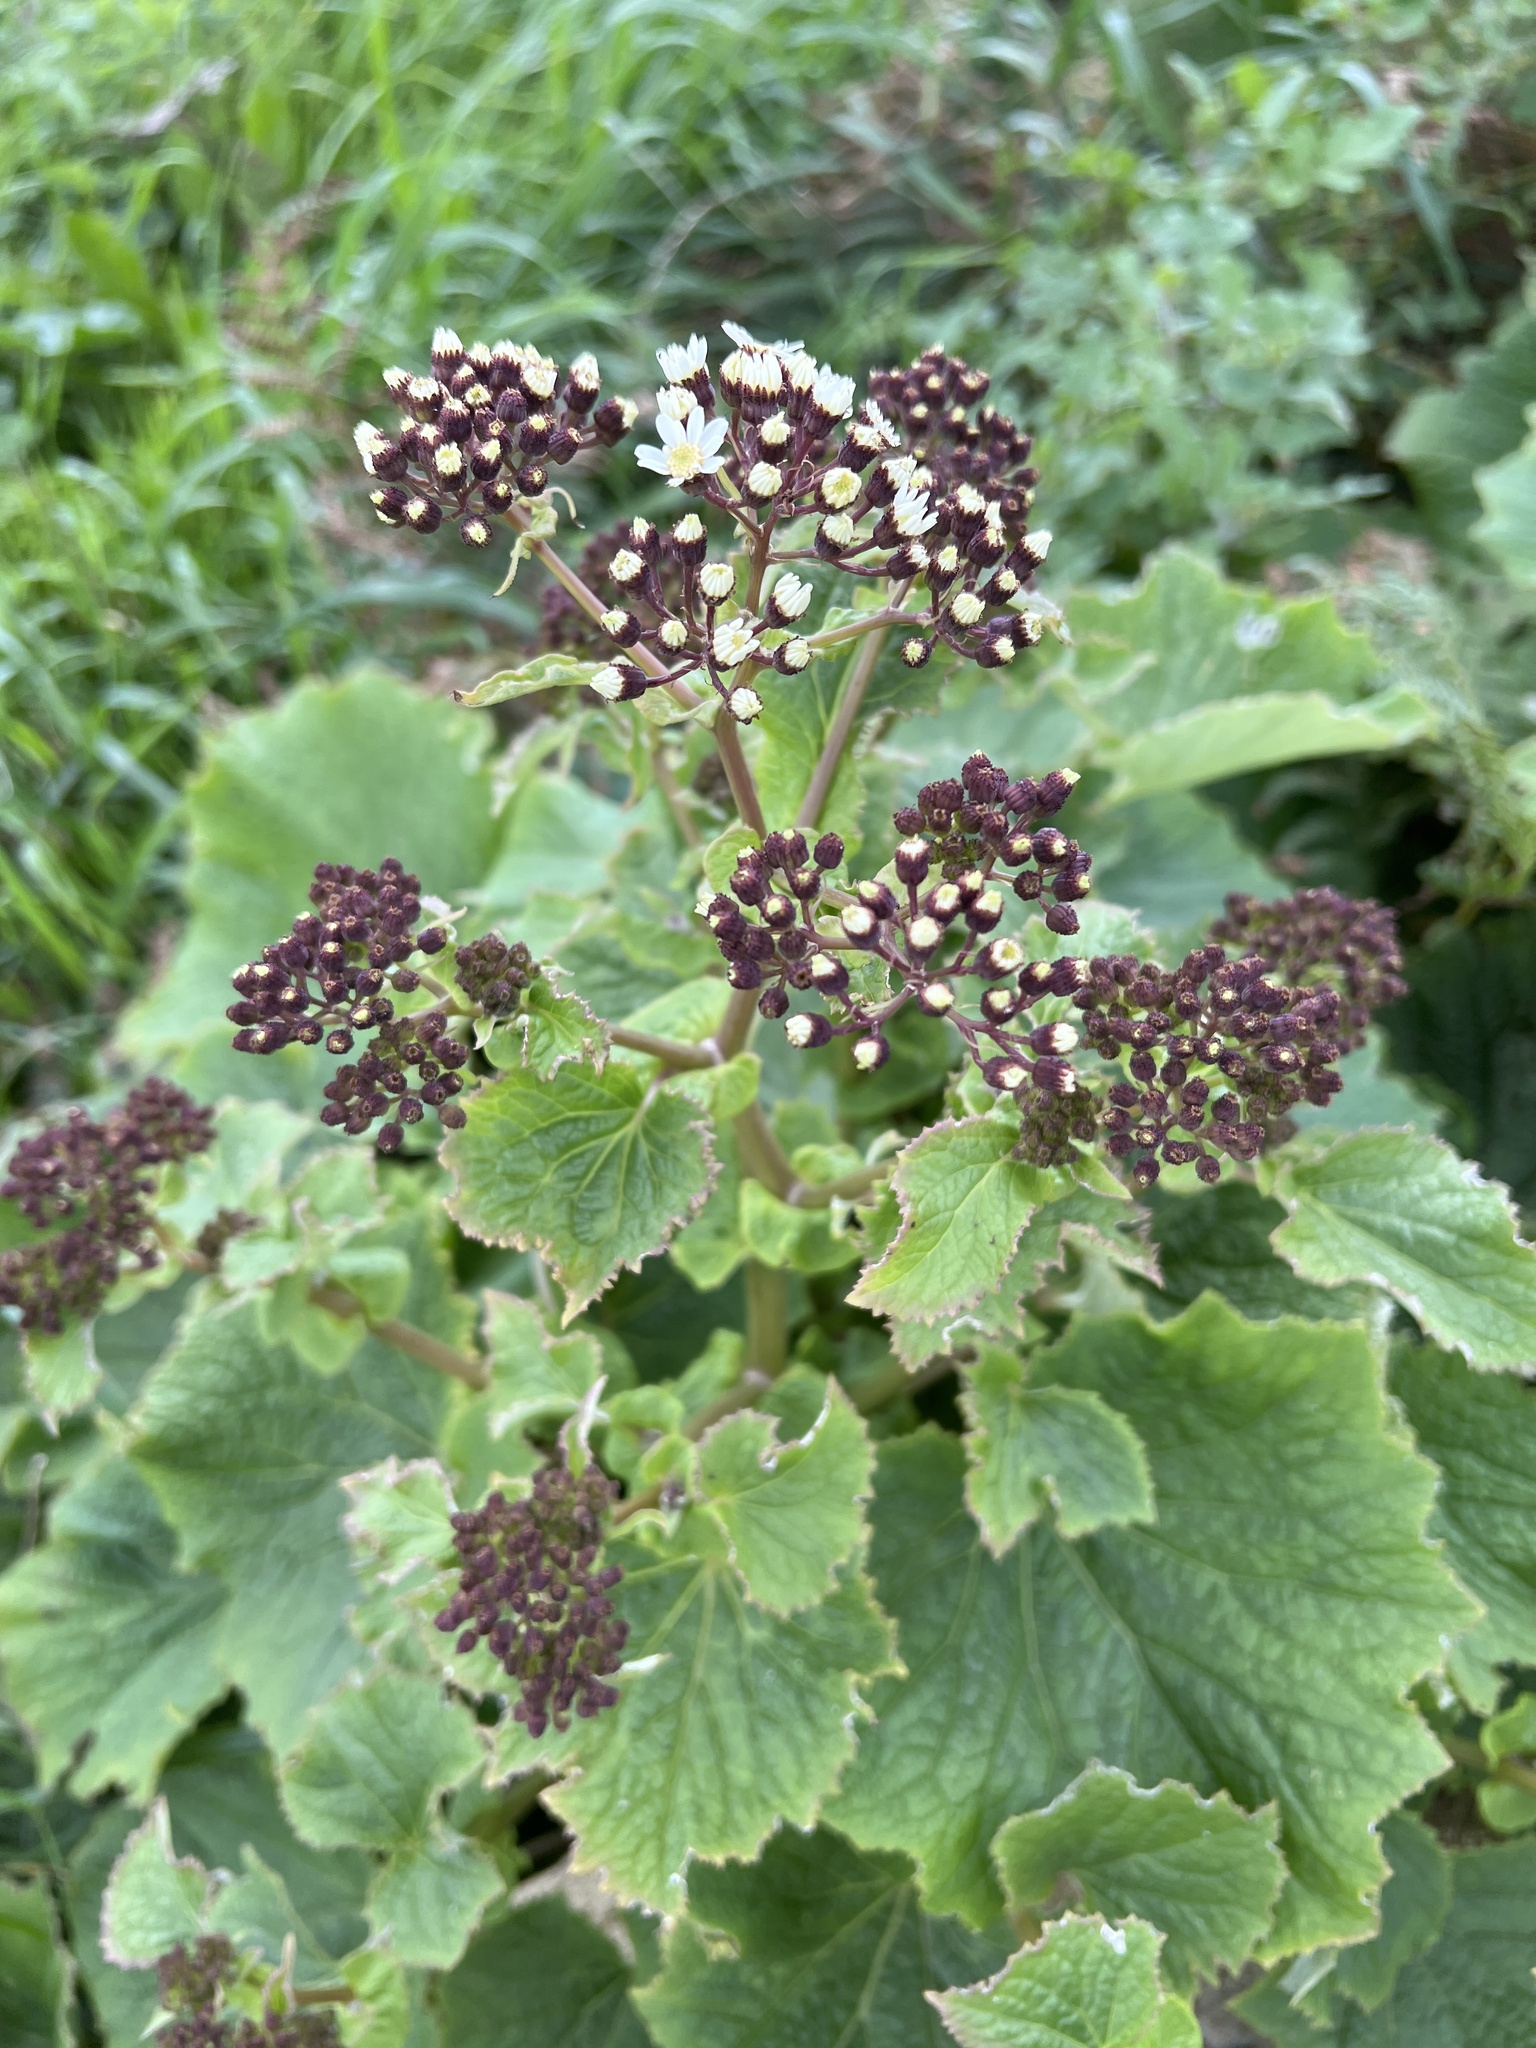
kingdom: Plantae
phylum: Tracheophyta
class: Magnoliopsida
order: Asterales
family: Asteraceae
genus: Pericallis
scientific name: Pericallis murrayi
